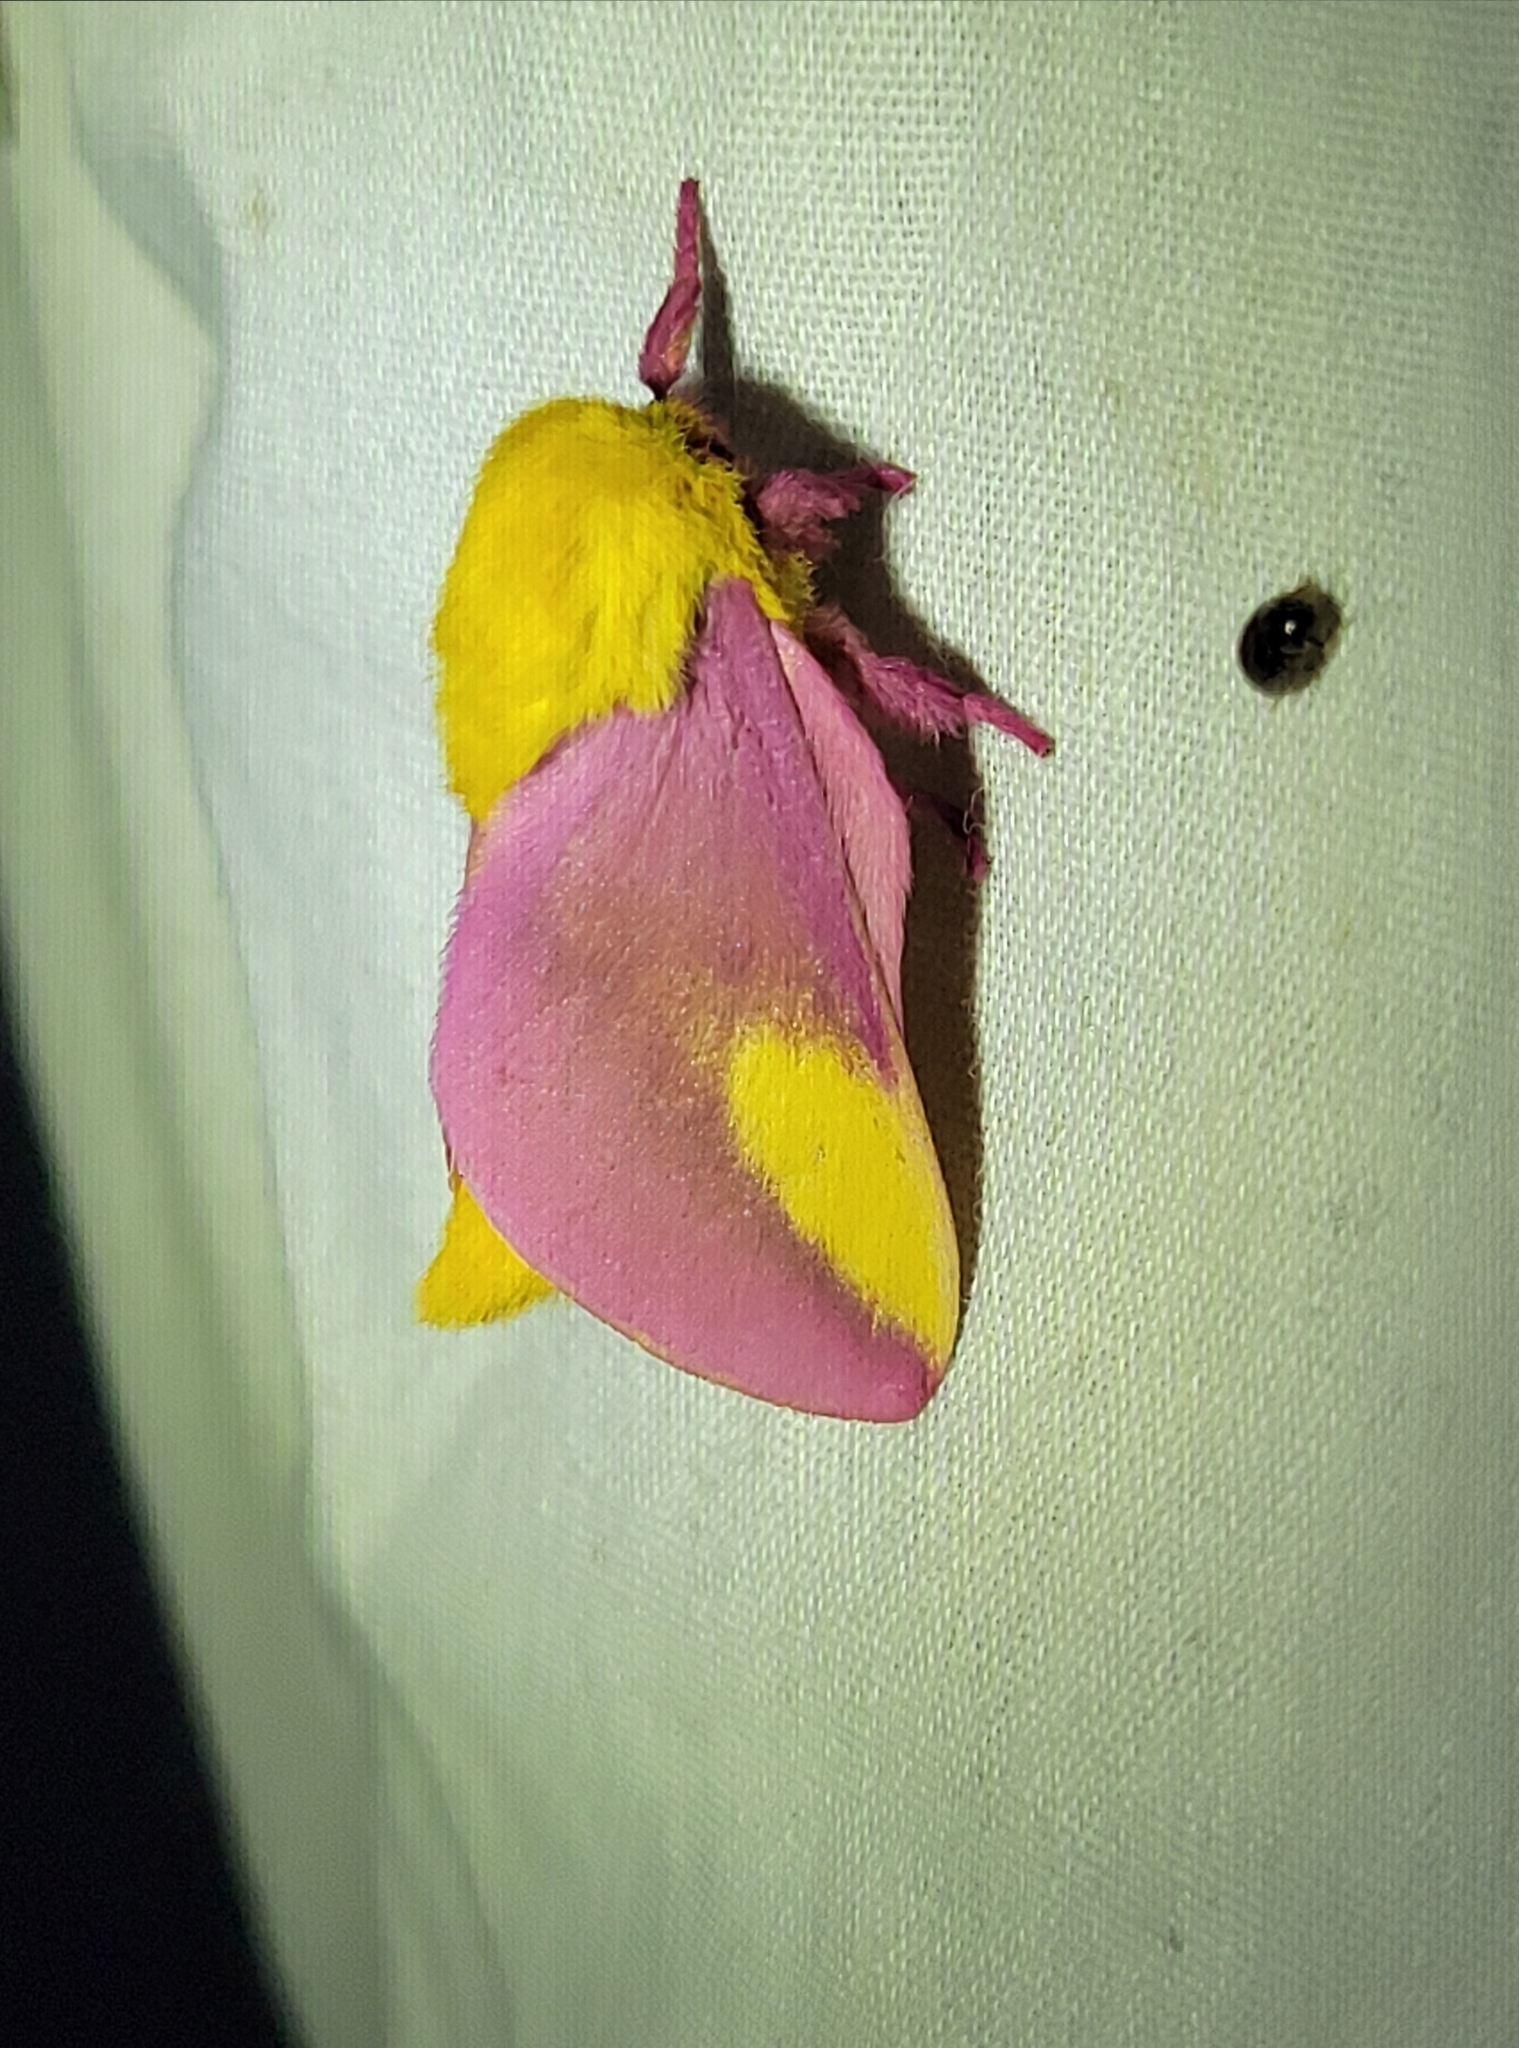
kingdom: Animalia
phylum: Arthropoda
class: Insecta
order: Lepidoptera
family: Saturniidae
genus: Dryocampa
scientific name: Dryocampa rubicunda
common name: Rosy maple moth
